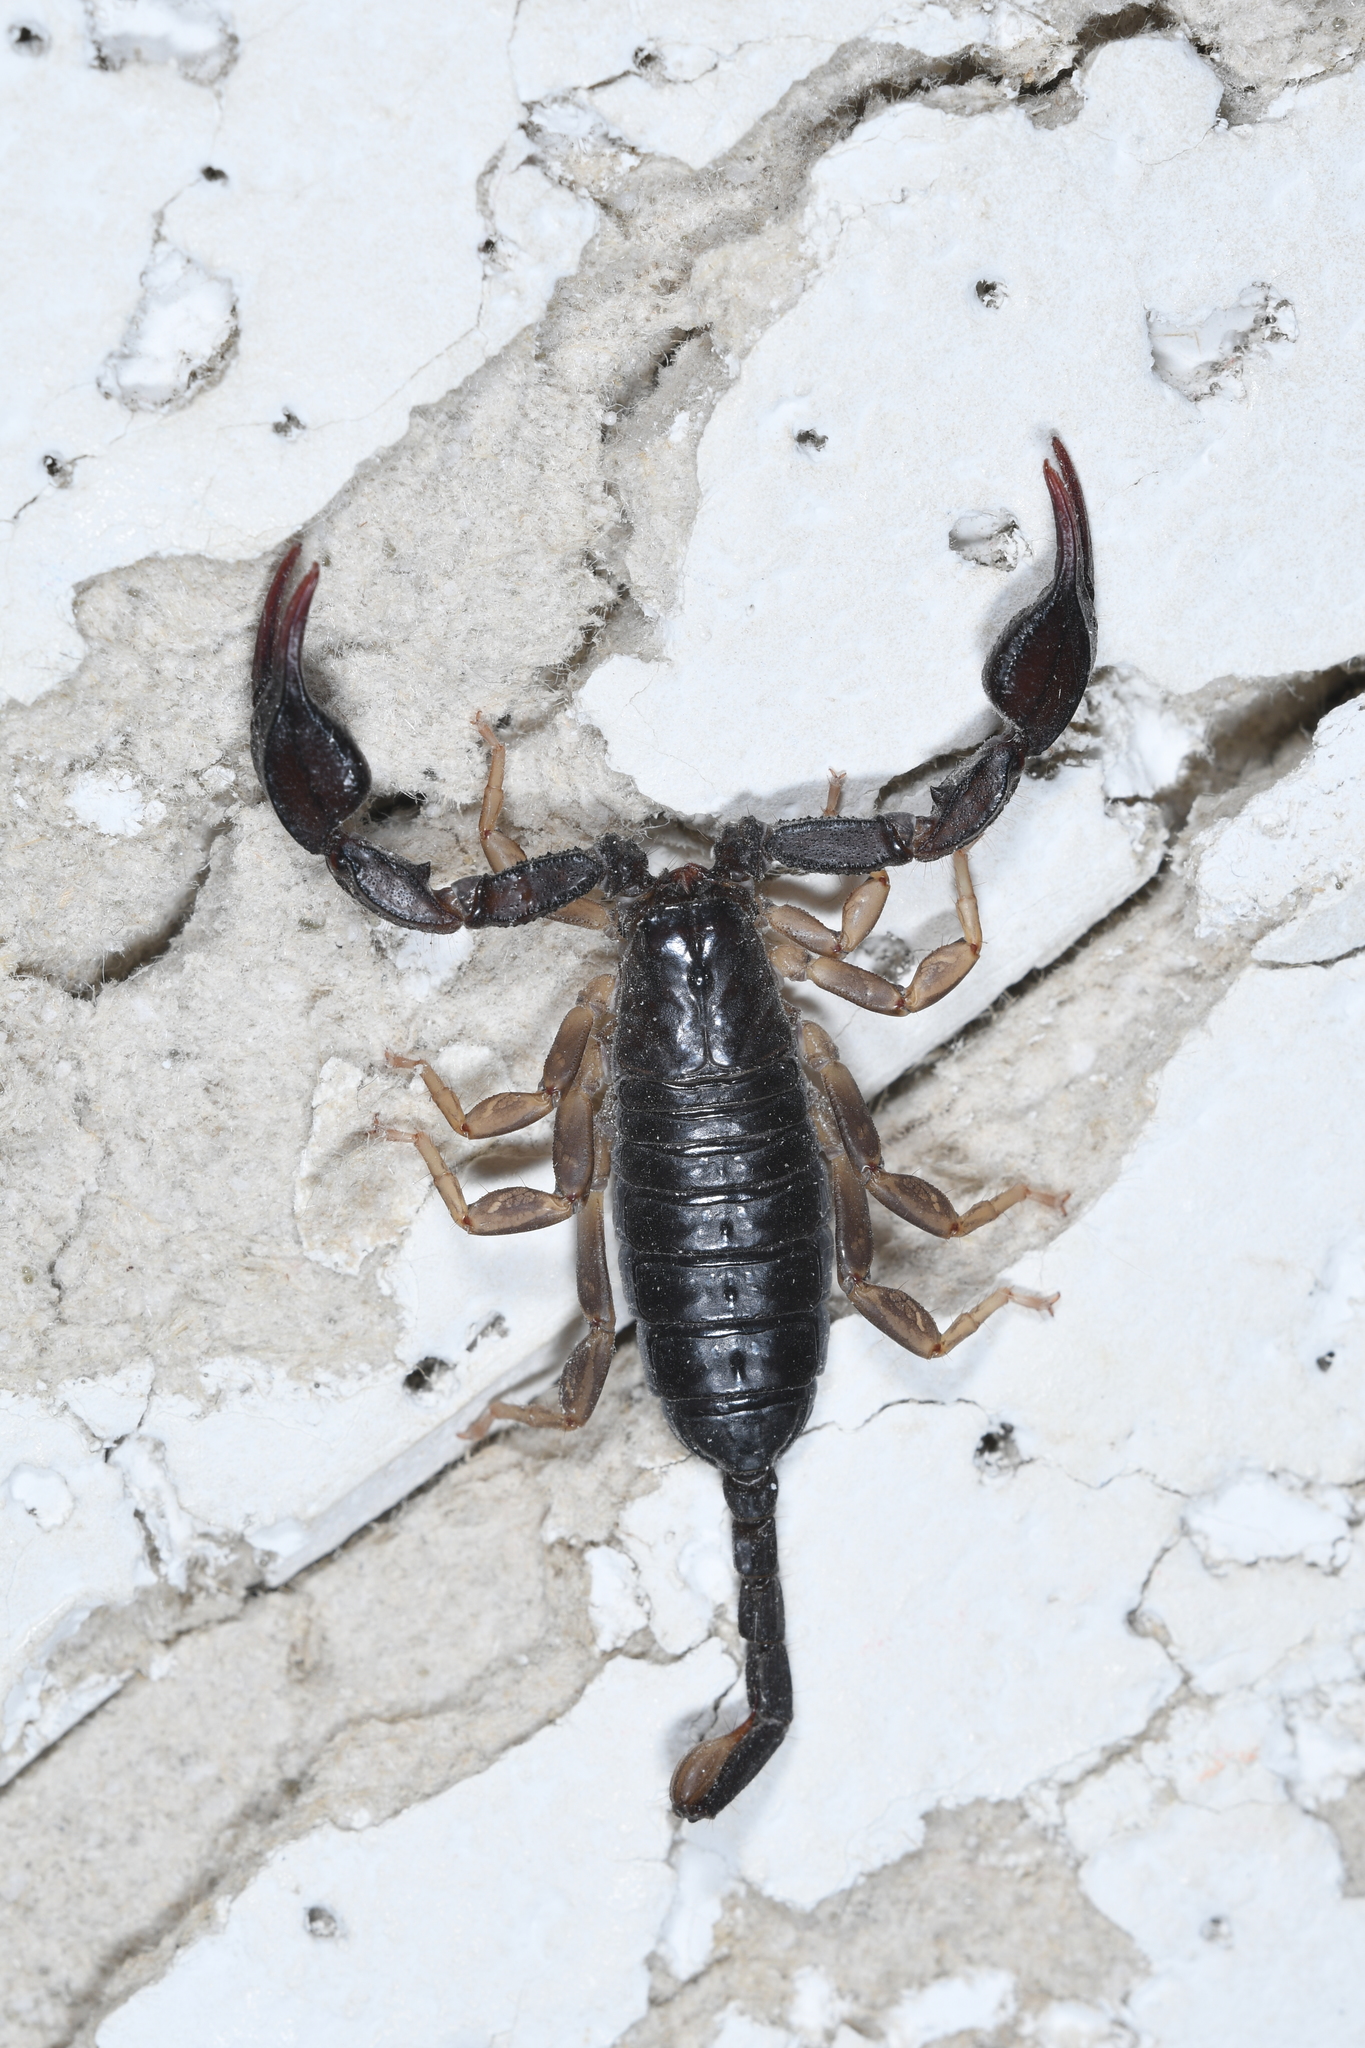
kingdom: Animalia
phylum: Arthropoda
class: Arachnida
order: Scorpiones
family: Euscorpiidae
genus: Euscorpius
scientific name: Euscorpius flavicaudis
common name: European yellow-tailed scorpion
